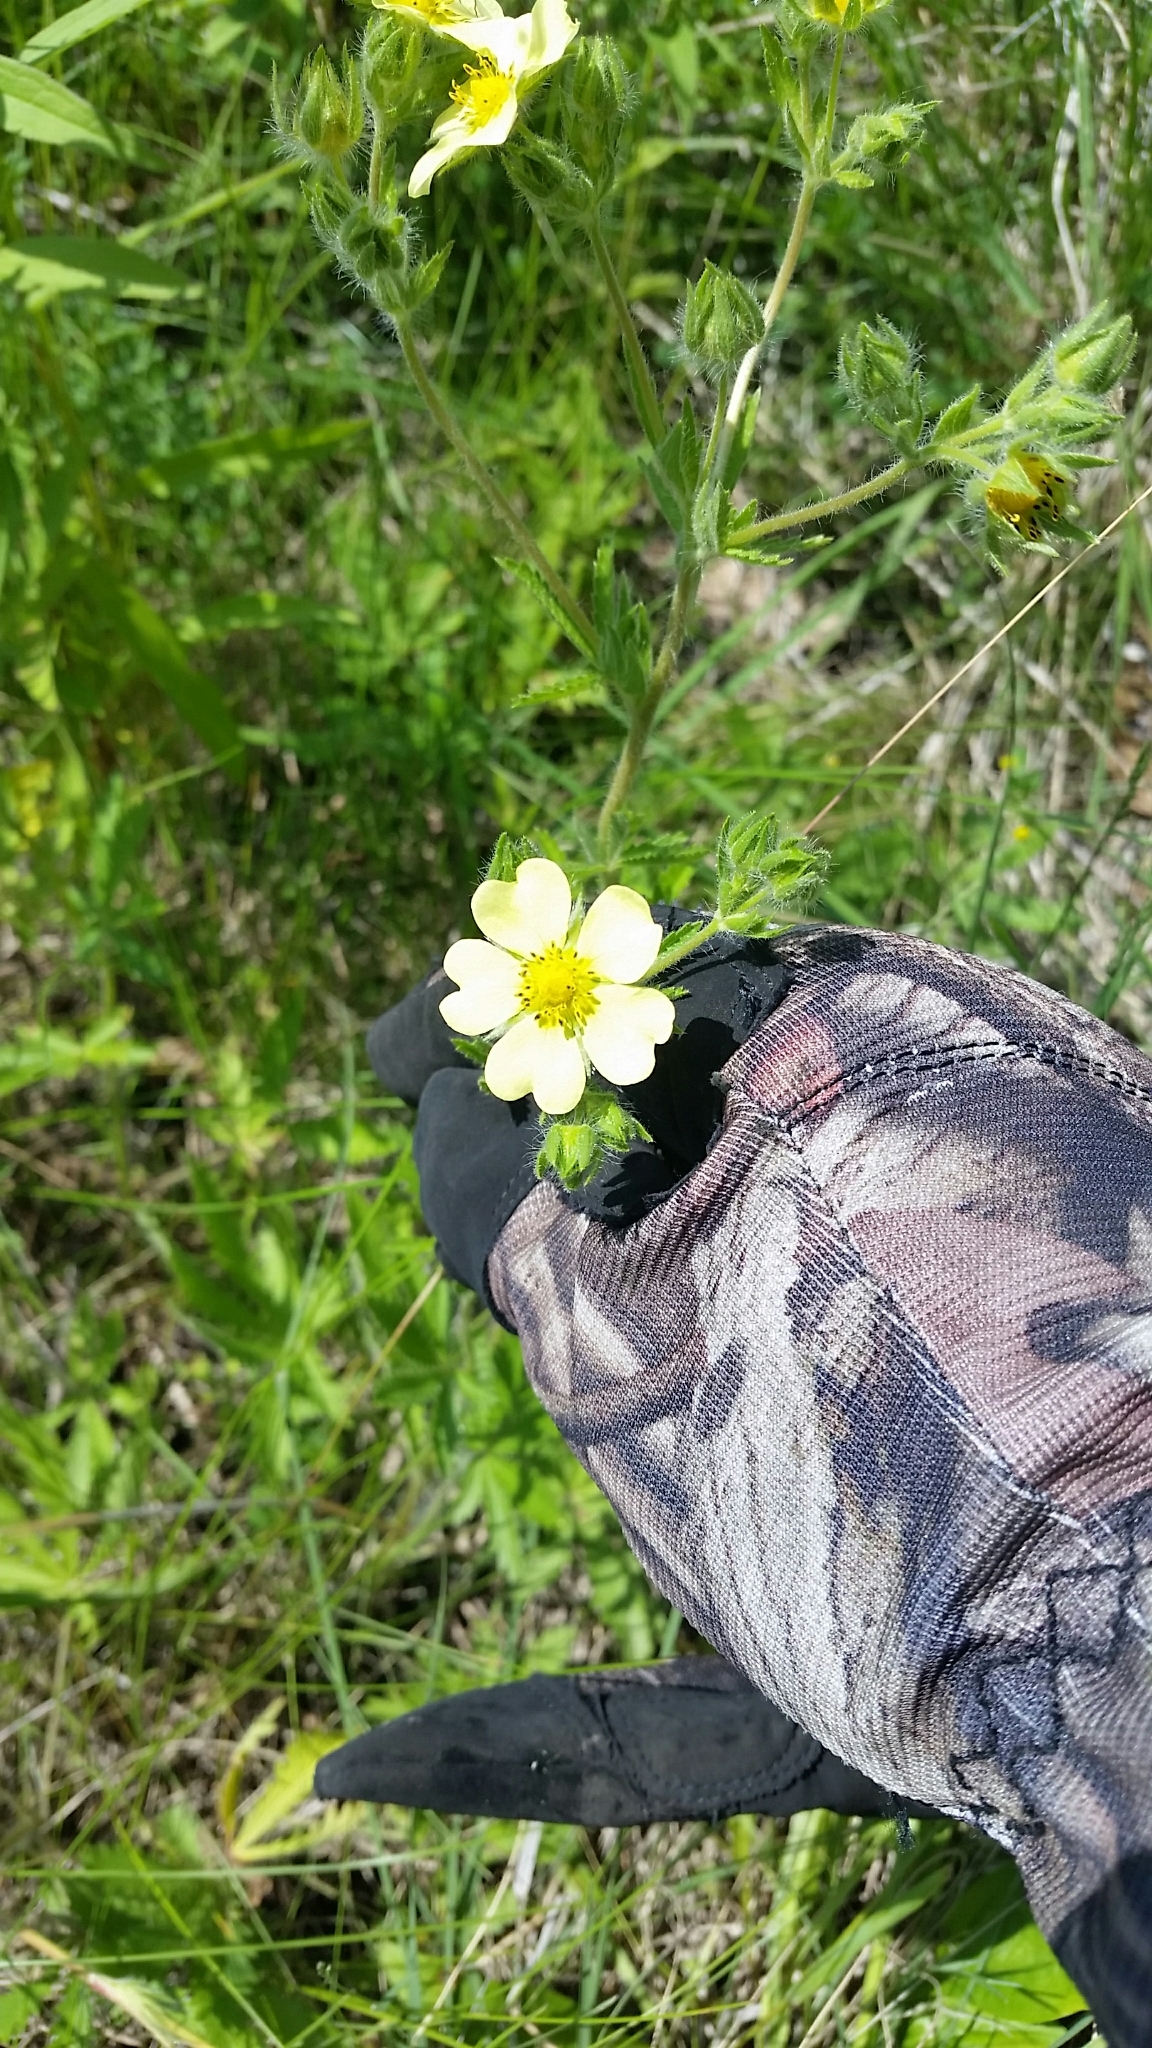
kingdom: Plantae
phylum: Tracheophyta
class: Magnoliopsida
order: Rosales
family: Rosaceae
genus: Potentilla
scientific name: Potentilla recta
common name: Sulphur cinquefoil
